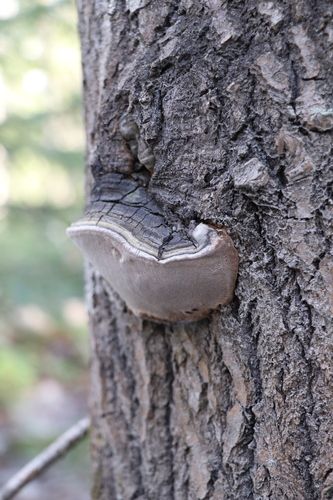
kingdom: Fungi
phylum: Basidiomycota
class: Agaricomycetes
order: Hymenochaetales
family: Hymenochaetaceae
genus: Phellinus
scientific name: Phellinus tremulae
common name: Aspen bracket
